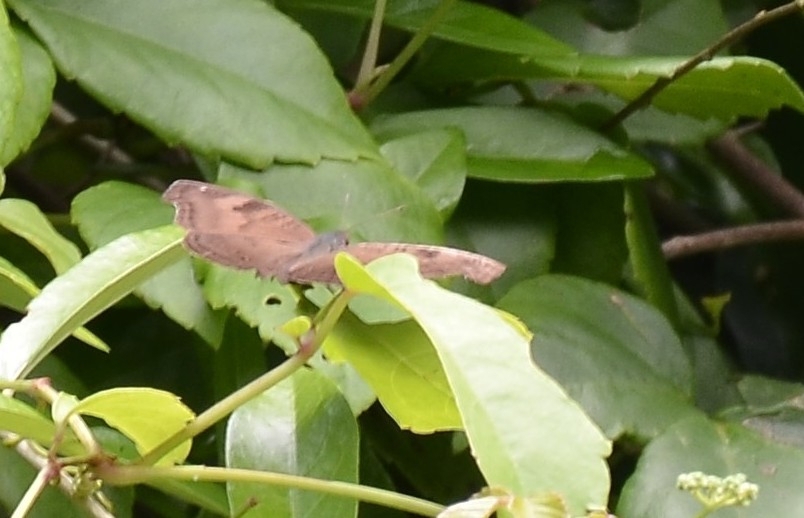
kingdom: Animalia
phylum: Arthropoda
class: Insecta
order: Lepidoptera
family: Nymphalidae
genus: Junonia
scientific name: Junonia iphita
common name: Chocolate pansy
